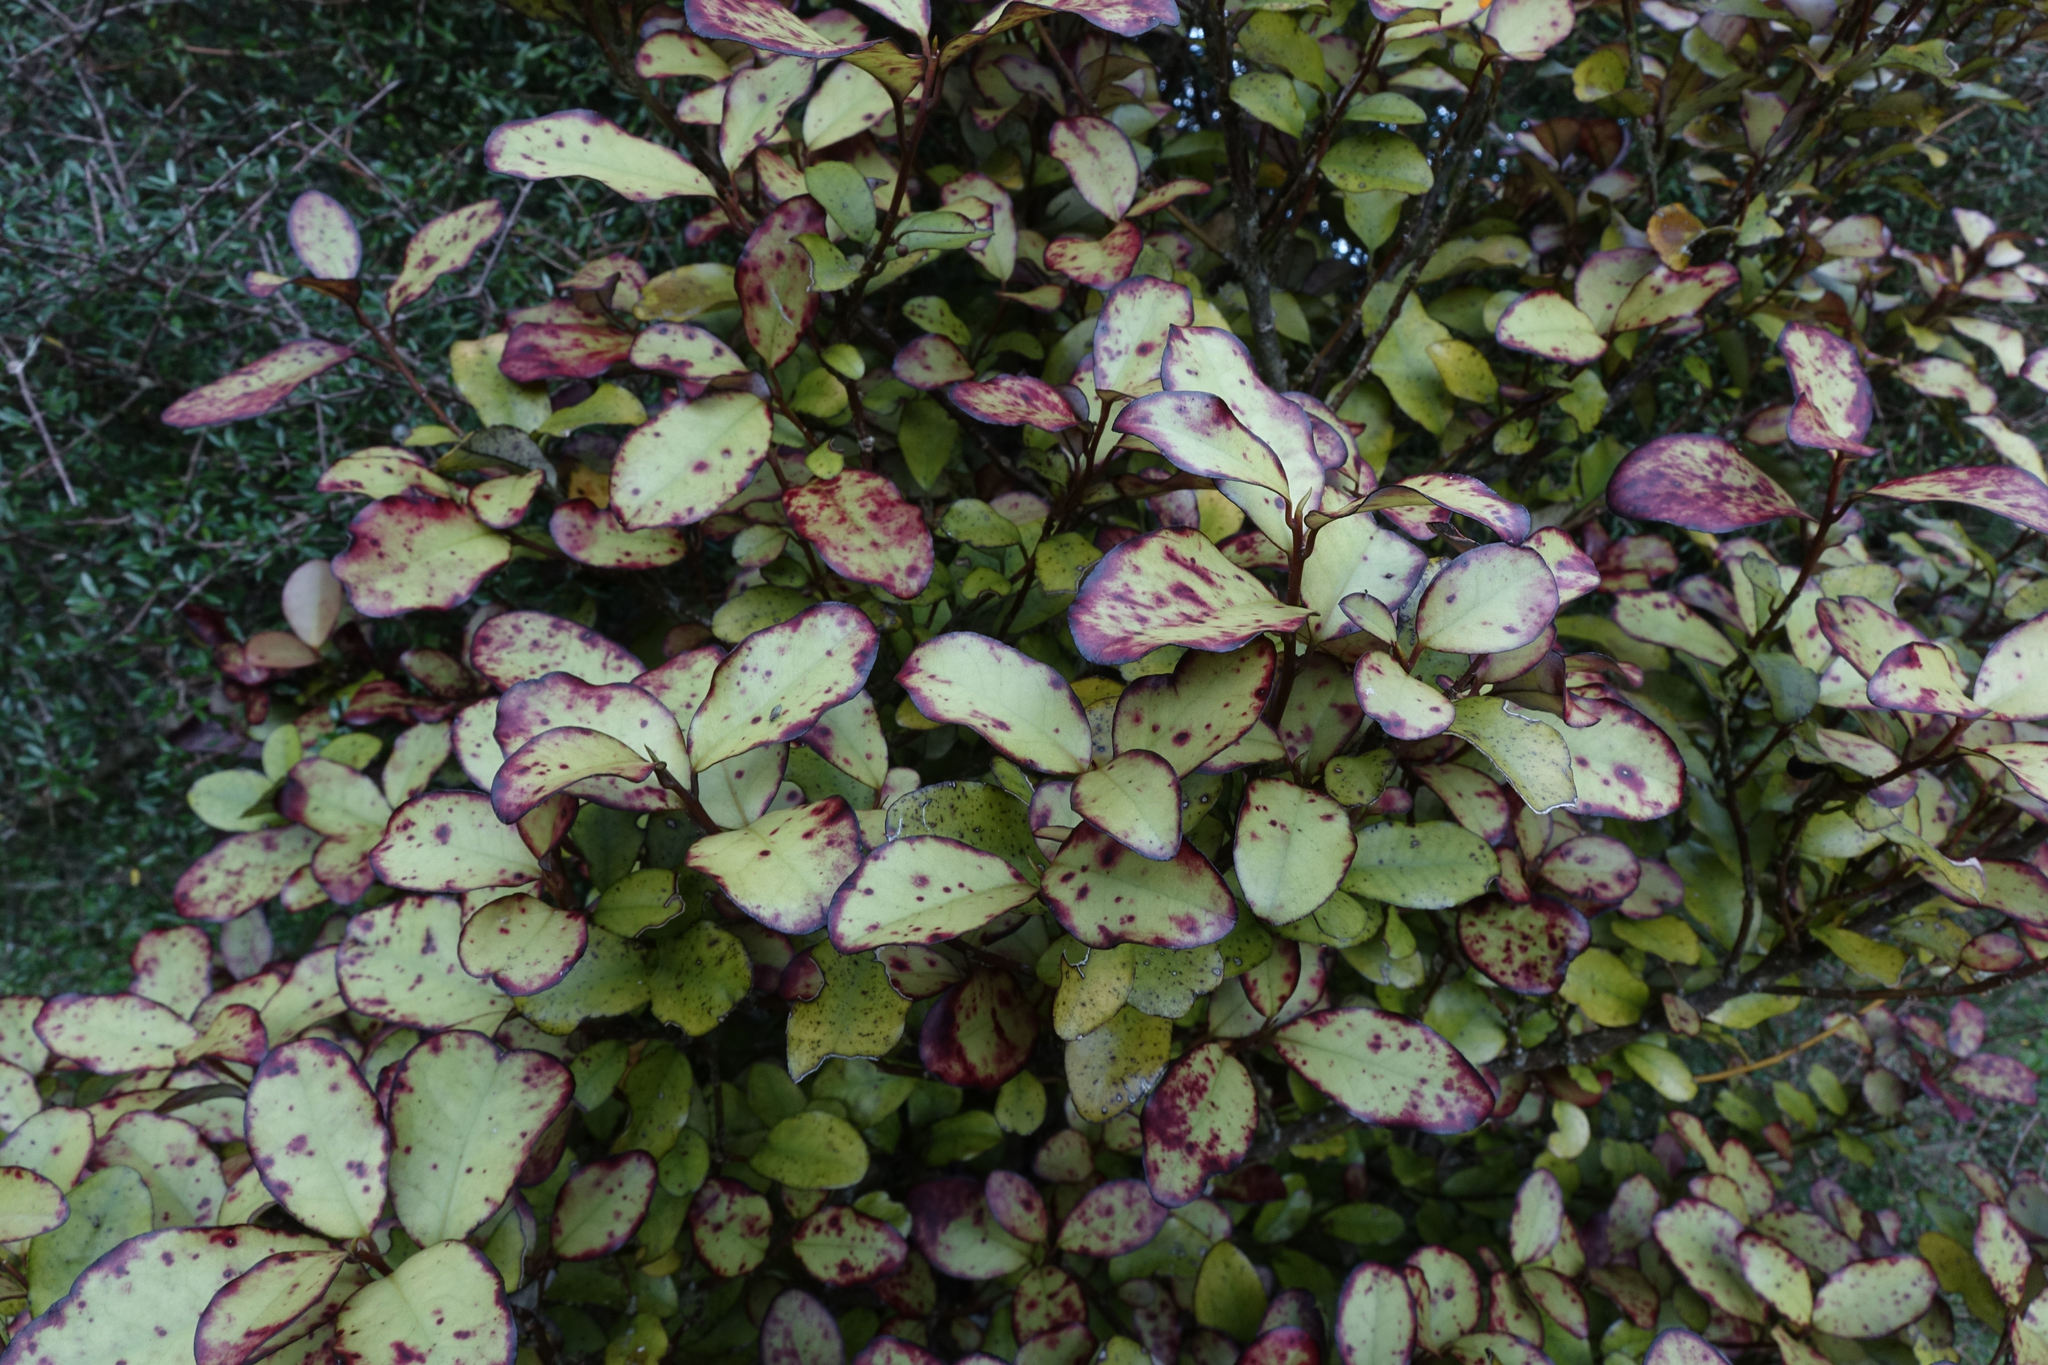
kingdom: Plantae
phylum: Tracheophyta
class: Magnoliopsida
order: Canellales
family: Winteraceae
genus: Pseudowintera
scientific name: Pseudowintera colorata
